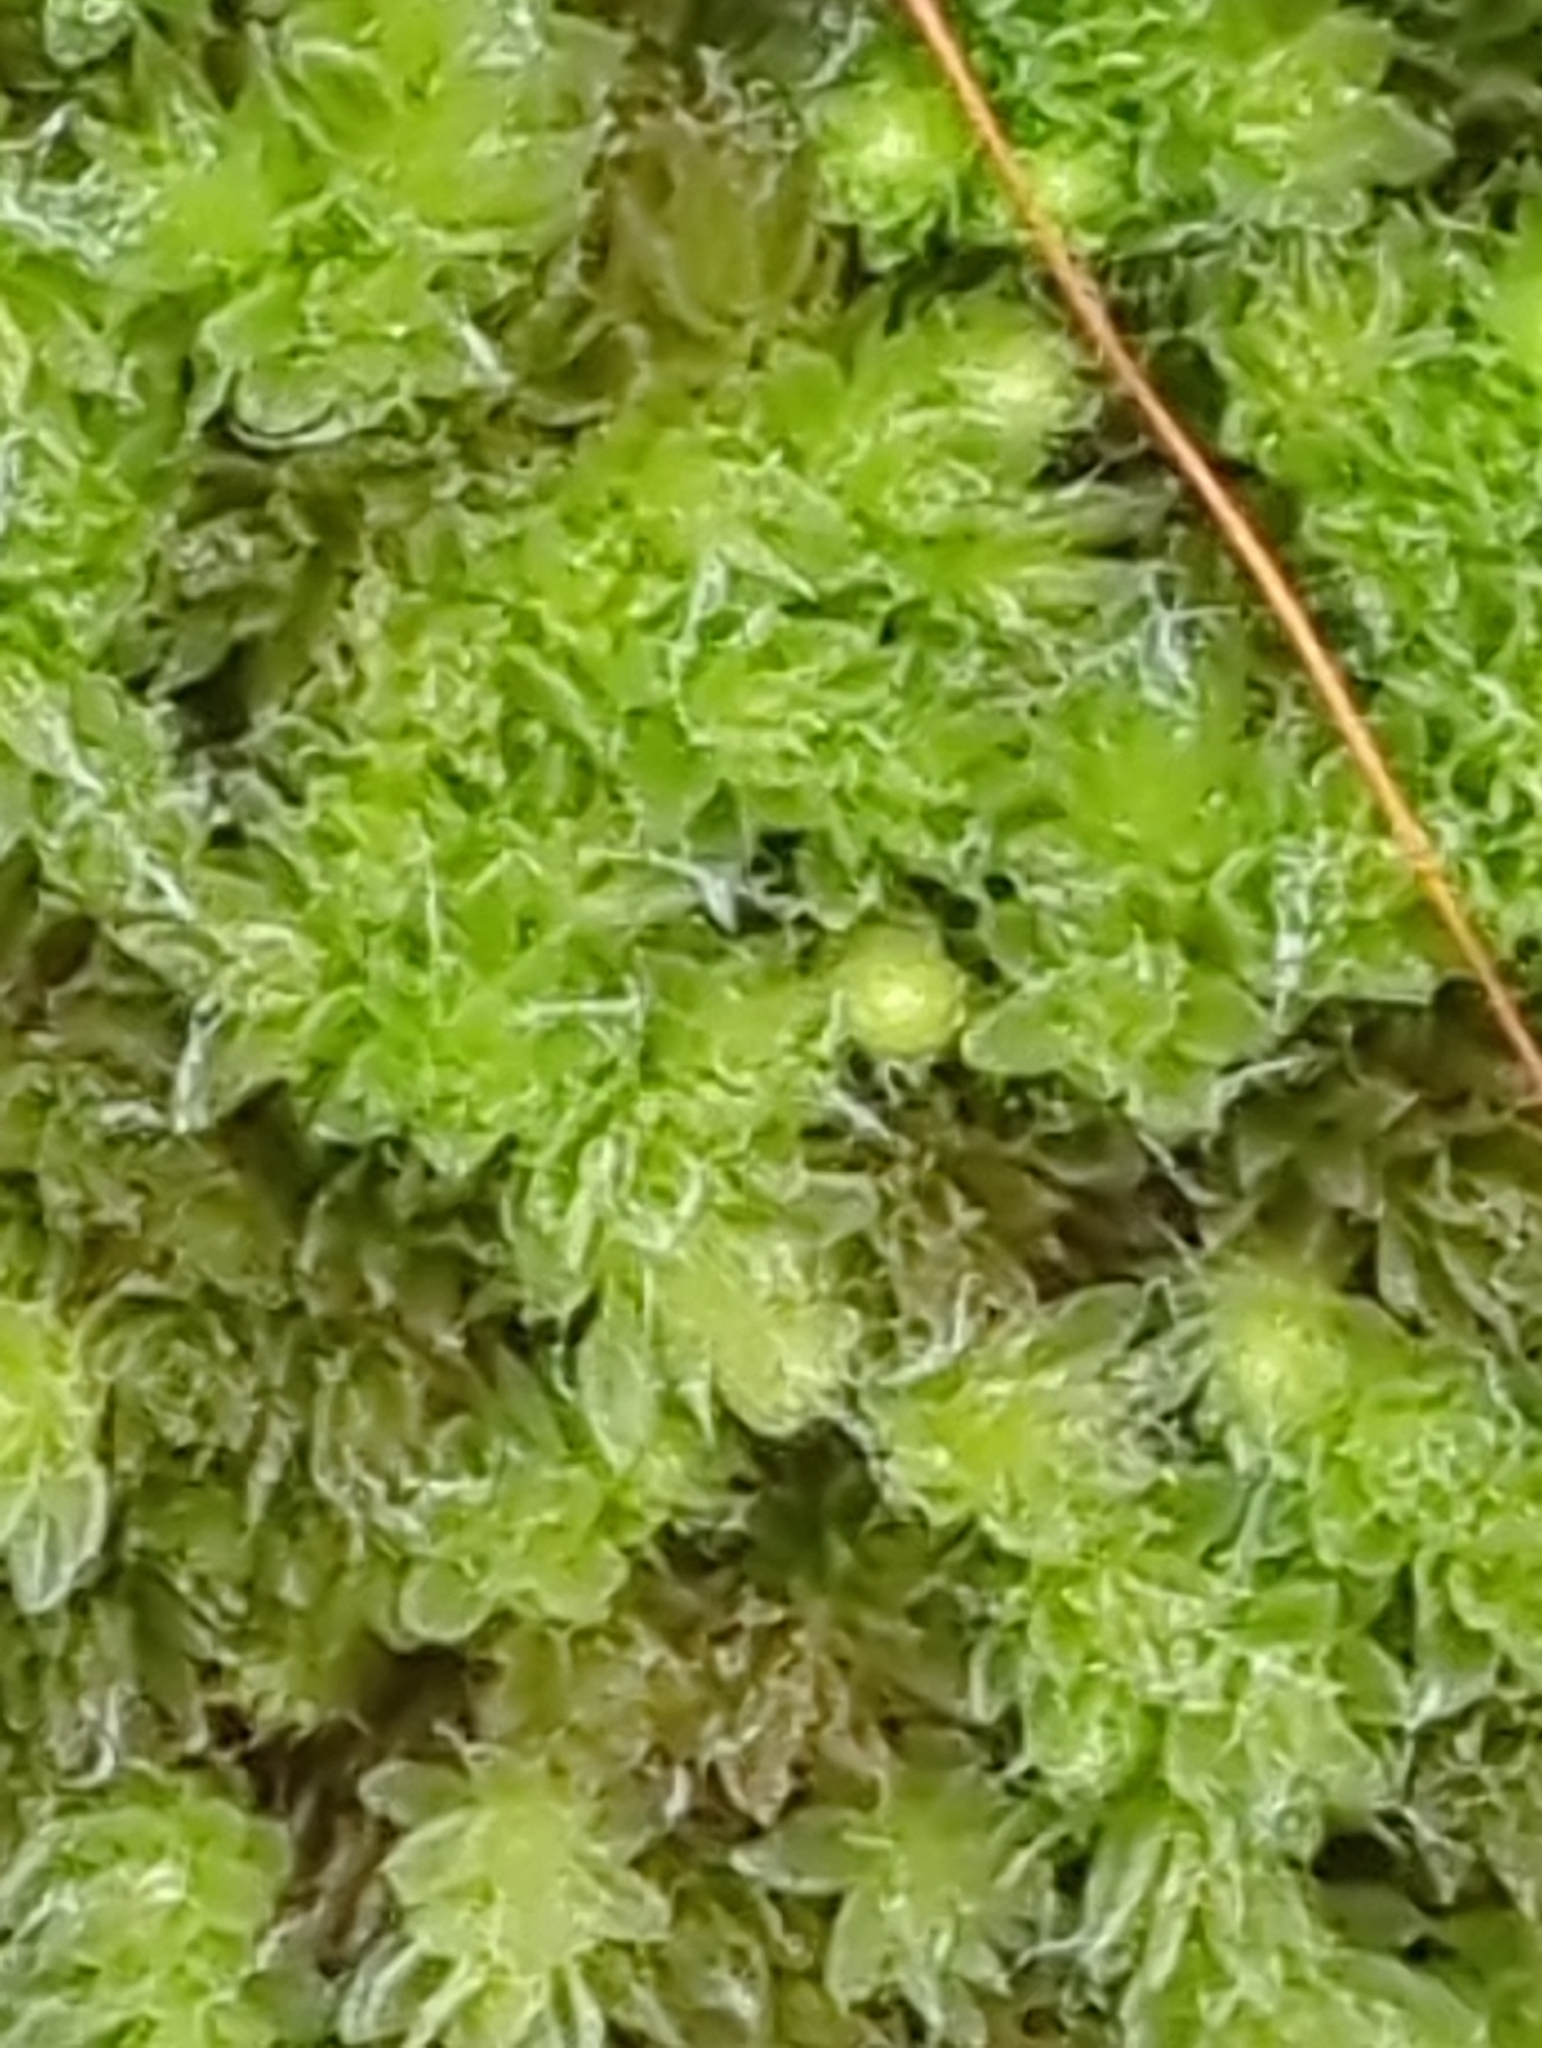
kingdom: Plantae
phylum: Bryophyta
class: Bryopsida
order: Bryales
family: Leptostomataceae
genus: Leptostomum
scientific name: Leptostomum inclinans
